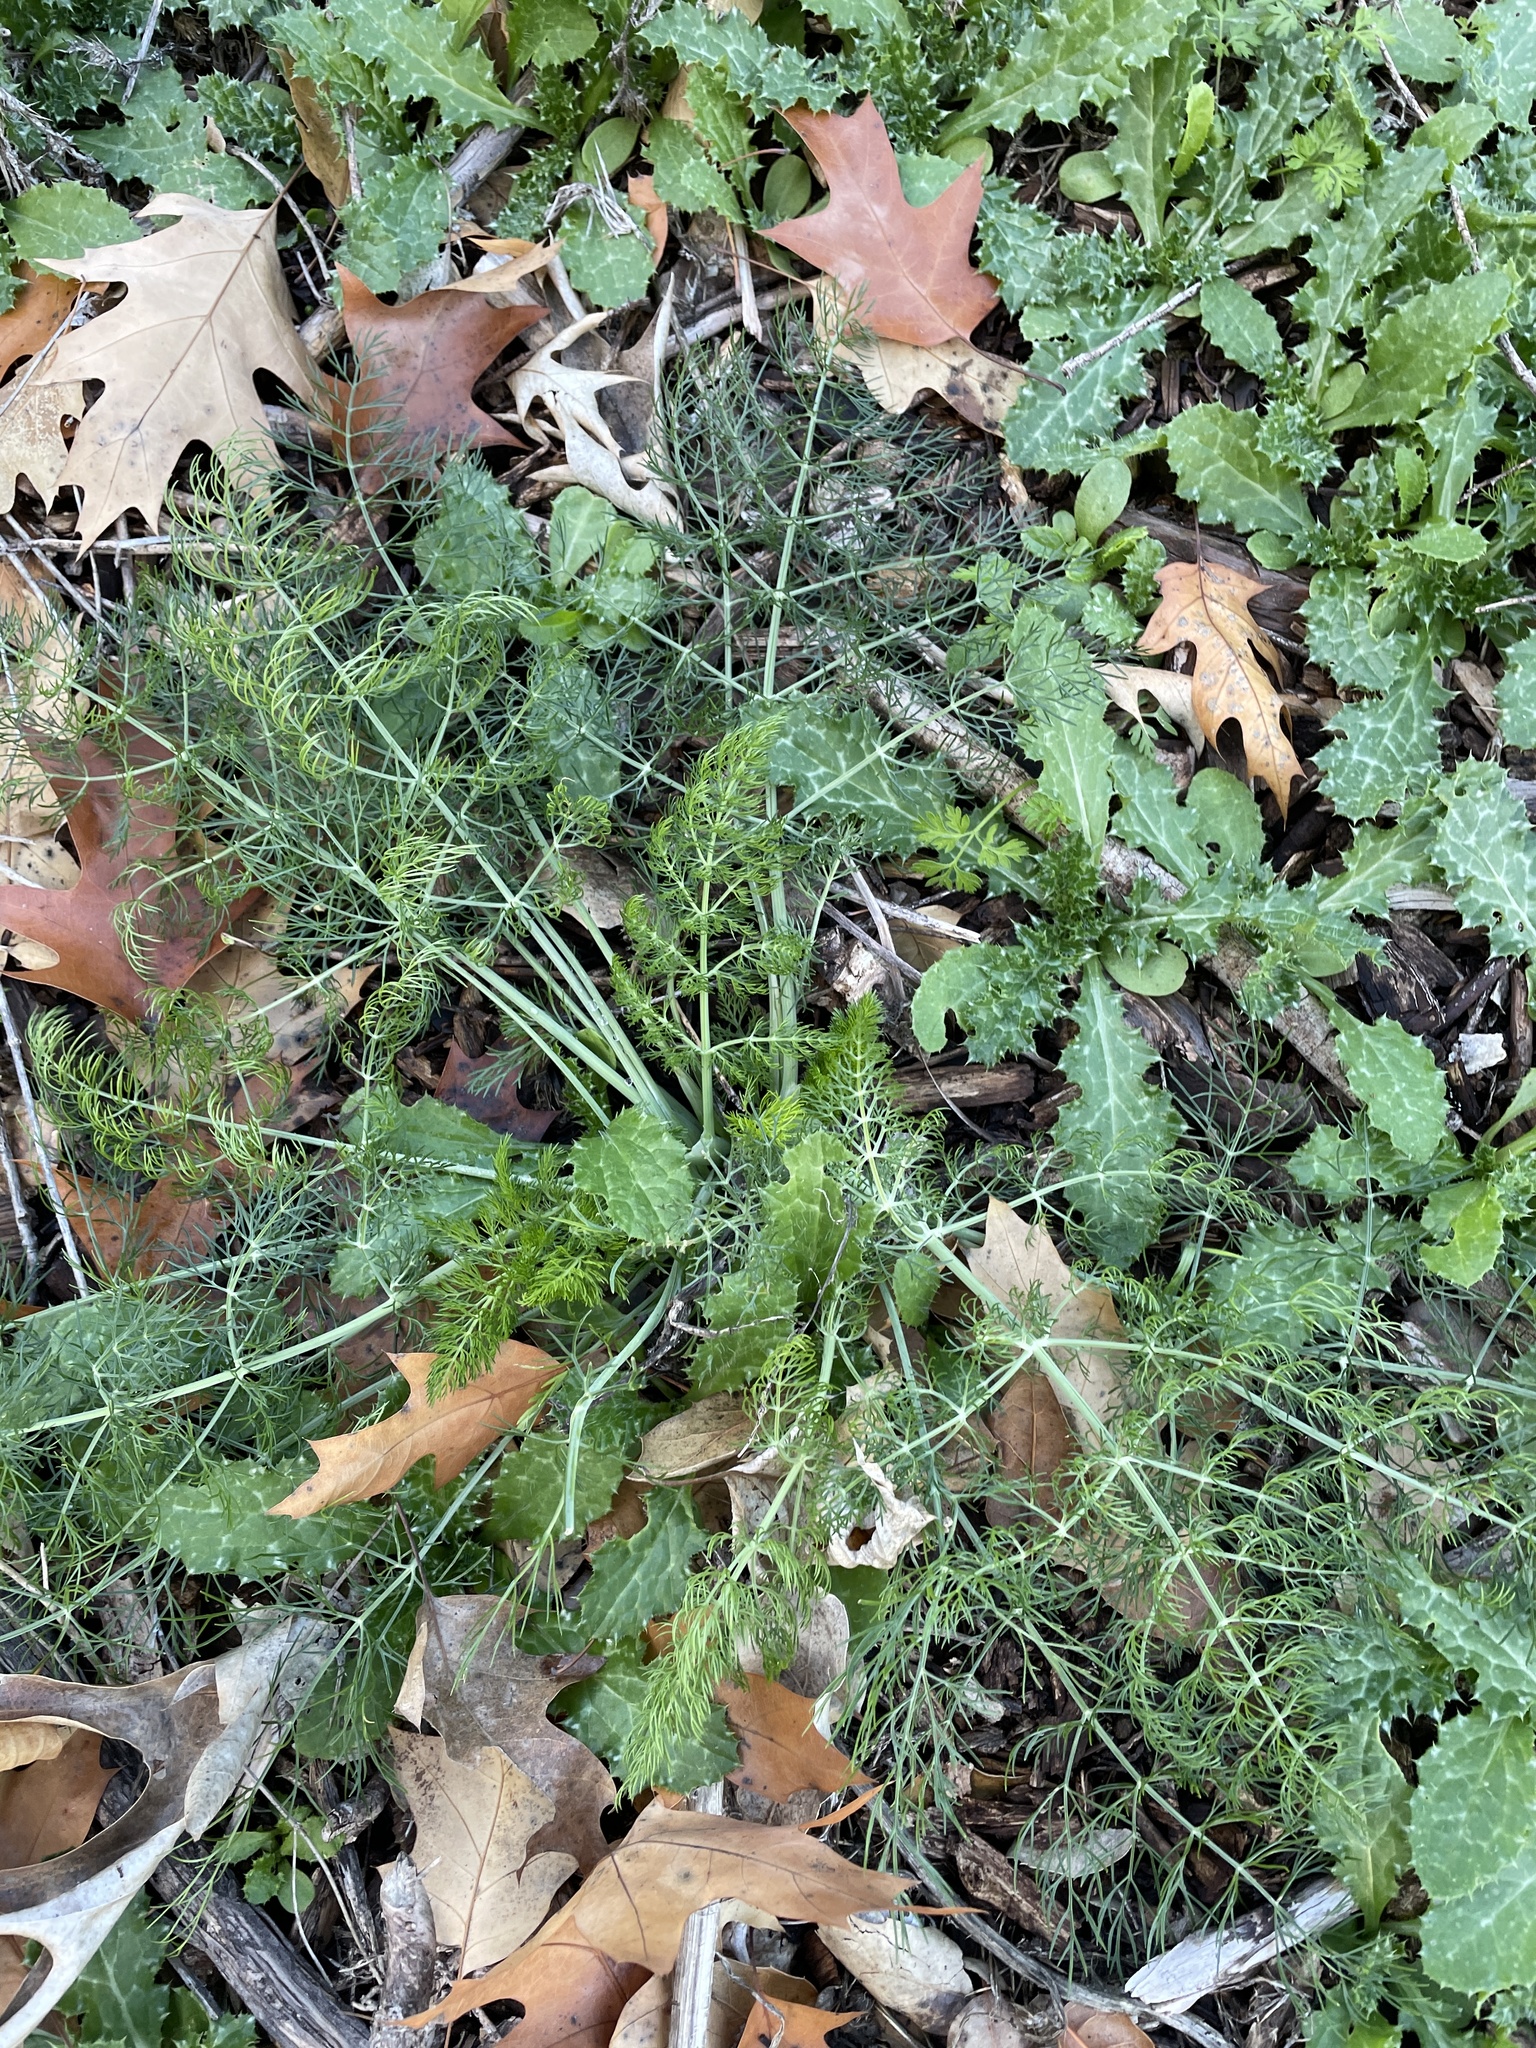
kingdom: Plantae
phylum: Tracheophyta
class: Magnoliopsida
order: Apiales
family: Apiaceae
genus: Foeniculum
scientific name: Foeniculum vulgare
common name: Fennel
